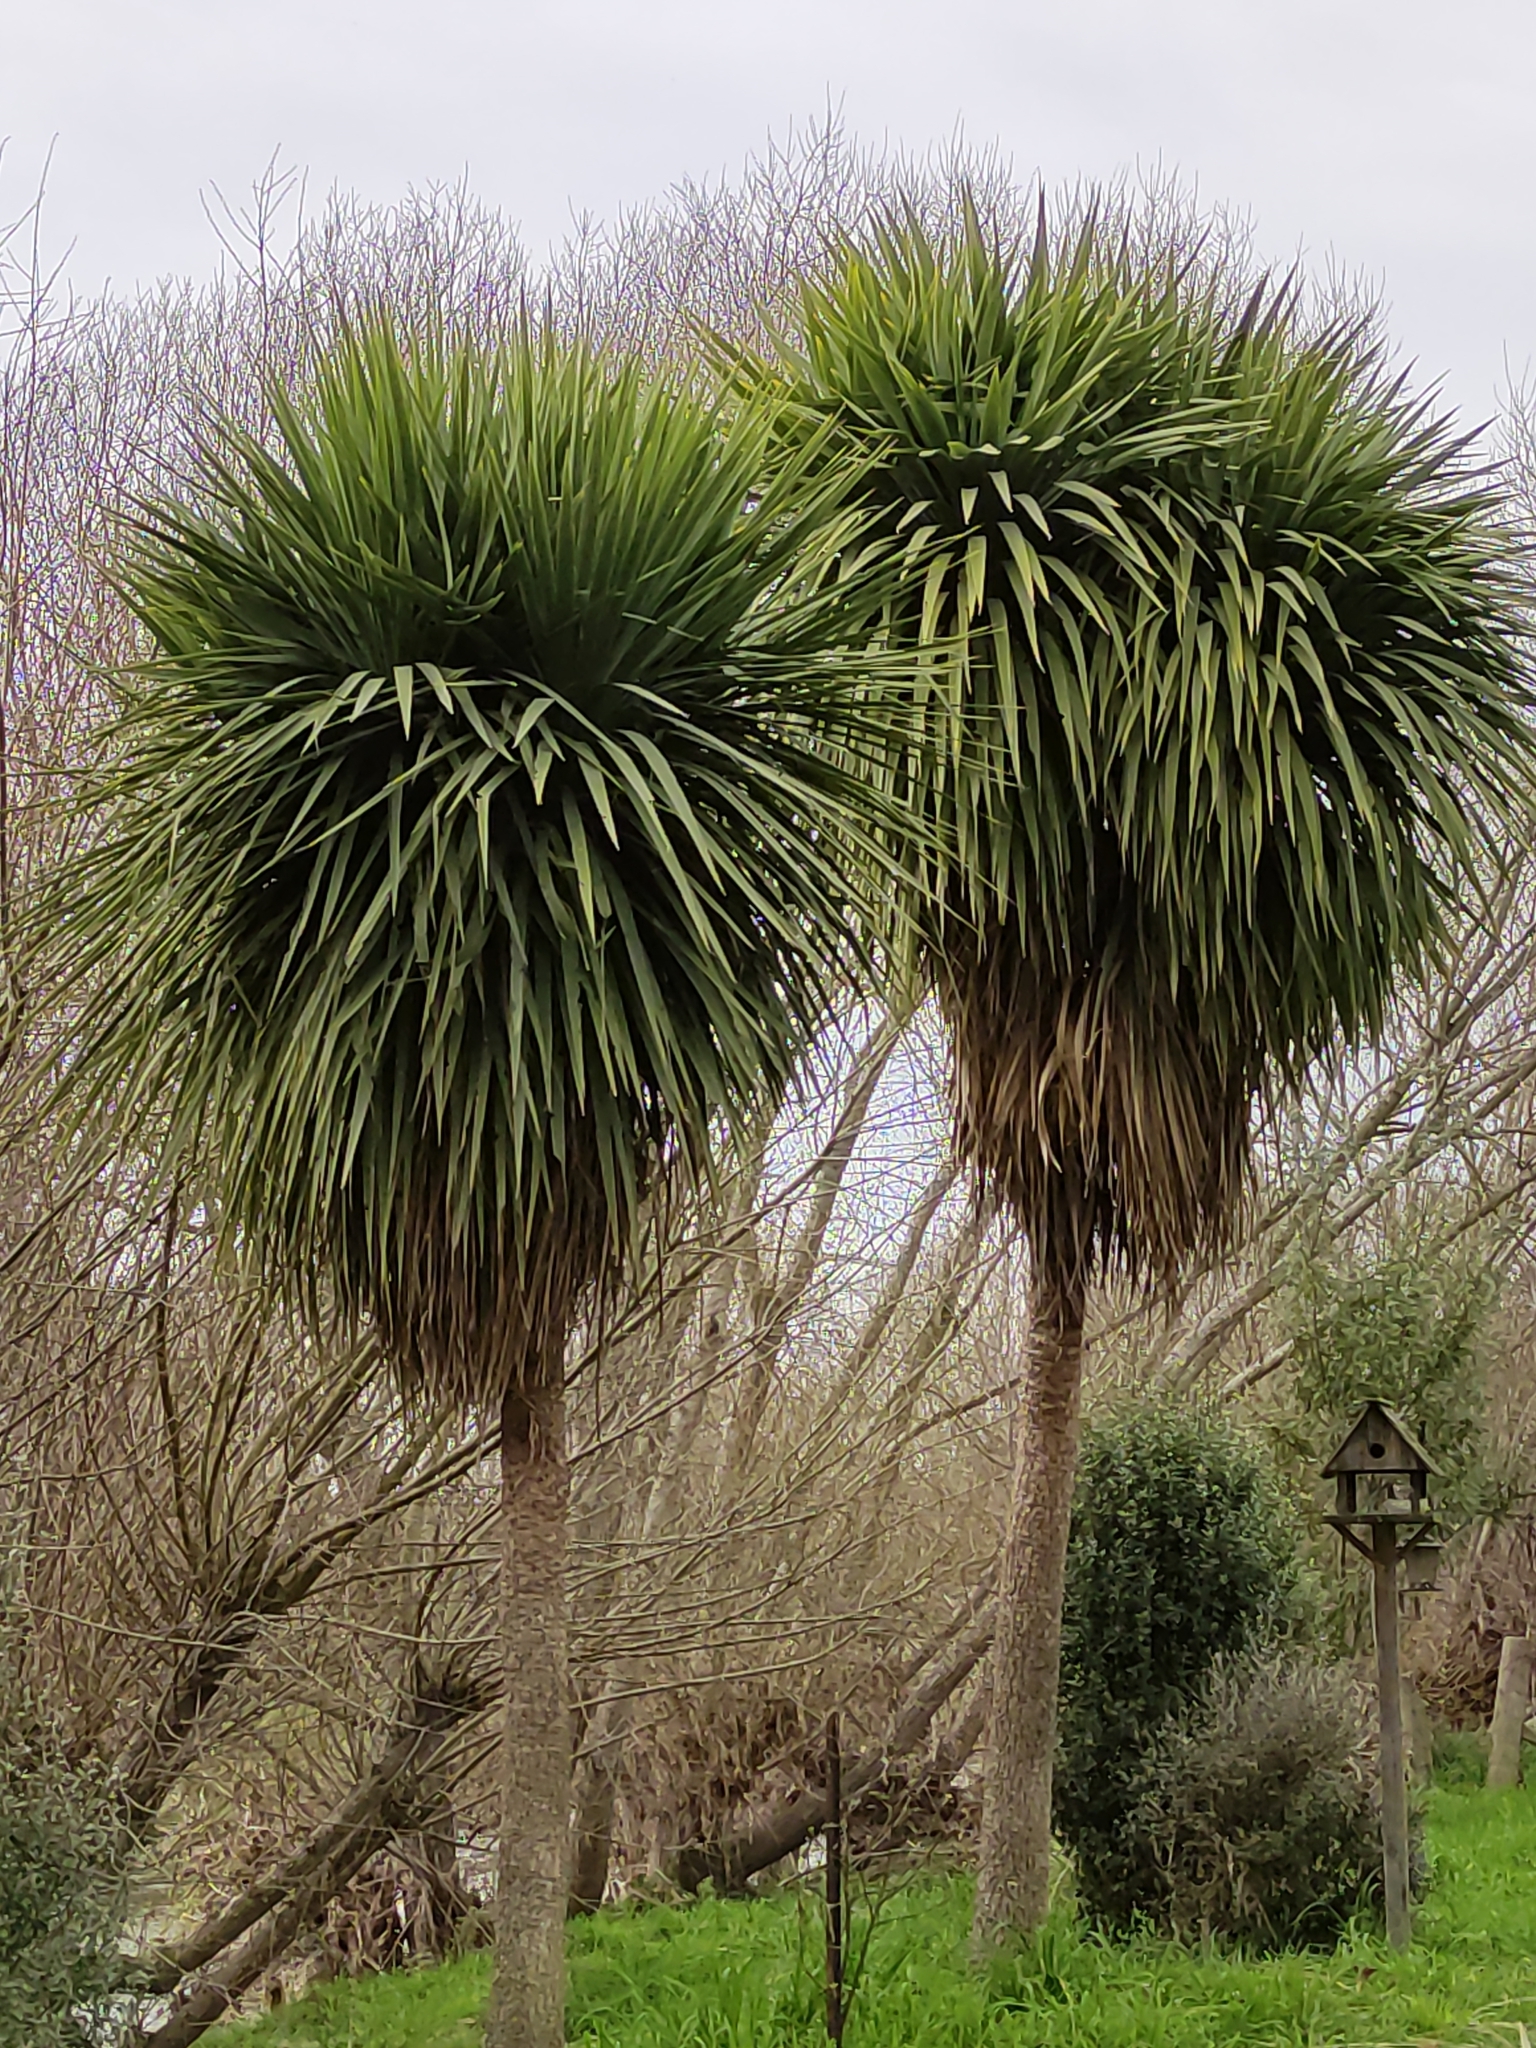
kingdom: Plantae
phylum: Tracheophyta
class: Liliopsida
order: Asparagales
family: Asparagaceae
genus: Cordyline
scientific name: Cordyline australis
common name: Cabbage-palm
